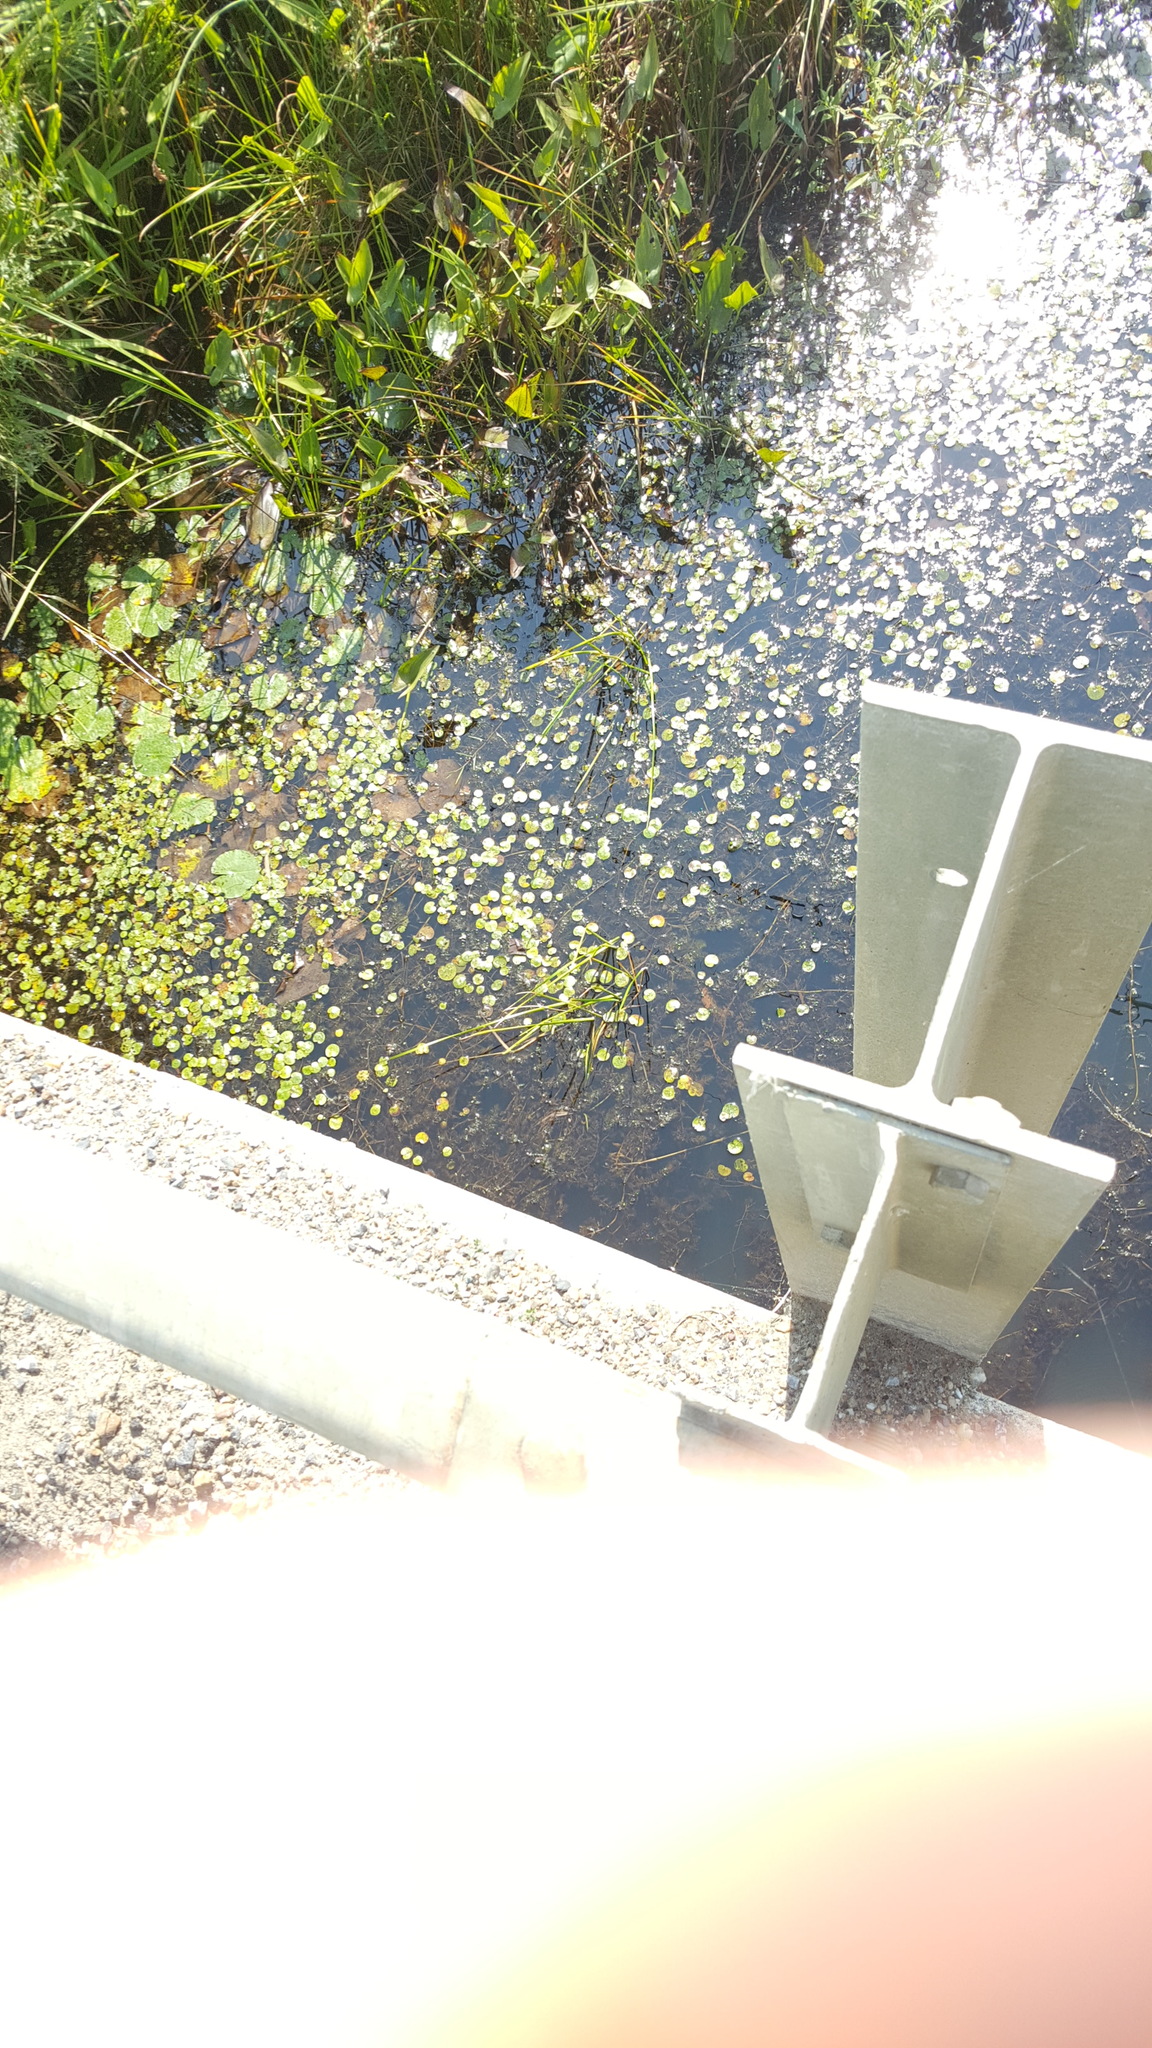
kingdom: Plantae
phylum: Tracheophyta
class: Liliopsida
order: Alismatales
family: Hydrocharitaceae
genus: Hydrocharis
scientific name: Hydrocharis morsus-ranae
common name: Frogbit
